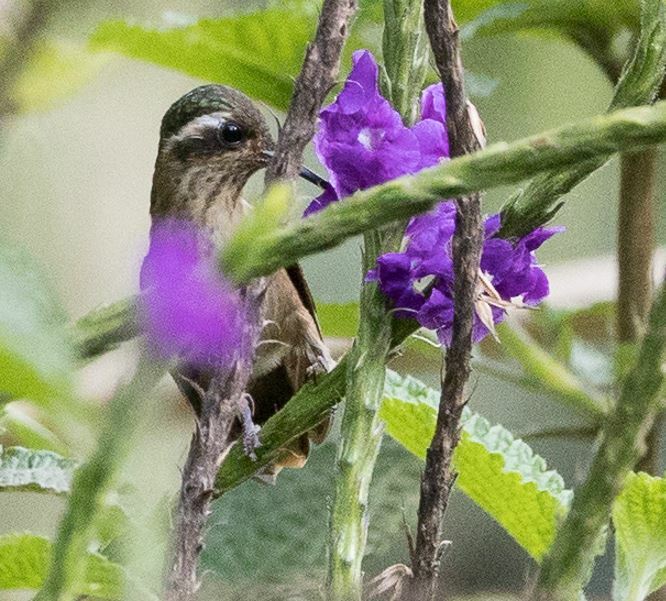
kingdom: Animalia
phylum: Chordata
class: Aves
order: Apodiformes
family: Trochilidae
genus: Adelomyia
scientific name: Adelomyia melanogenys
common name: Speckled hummingbird
